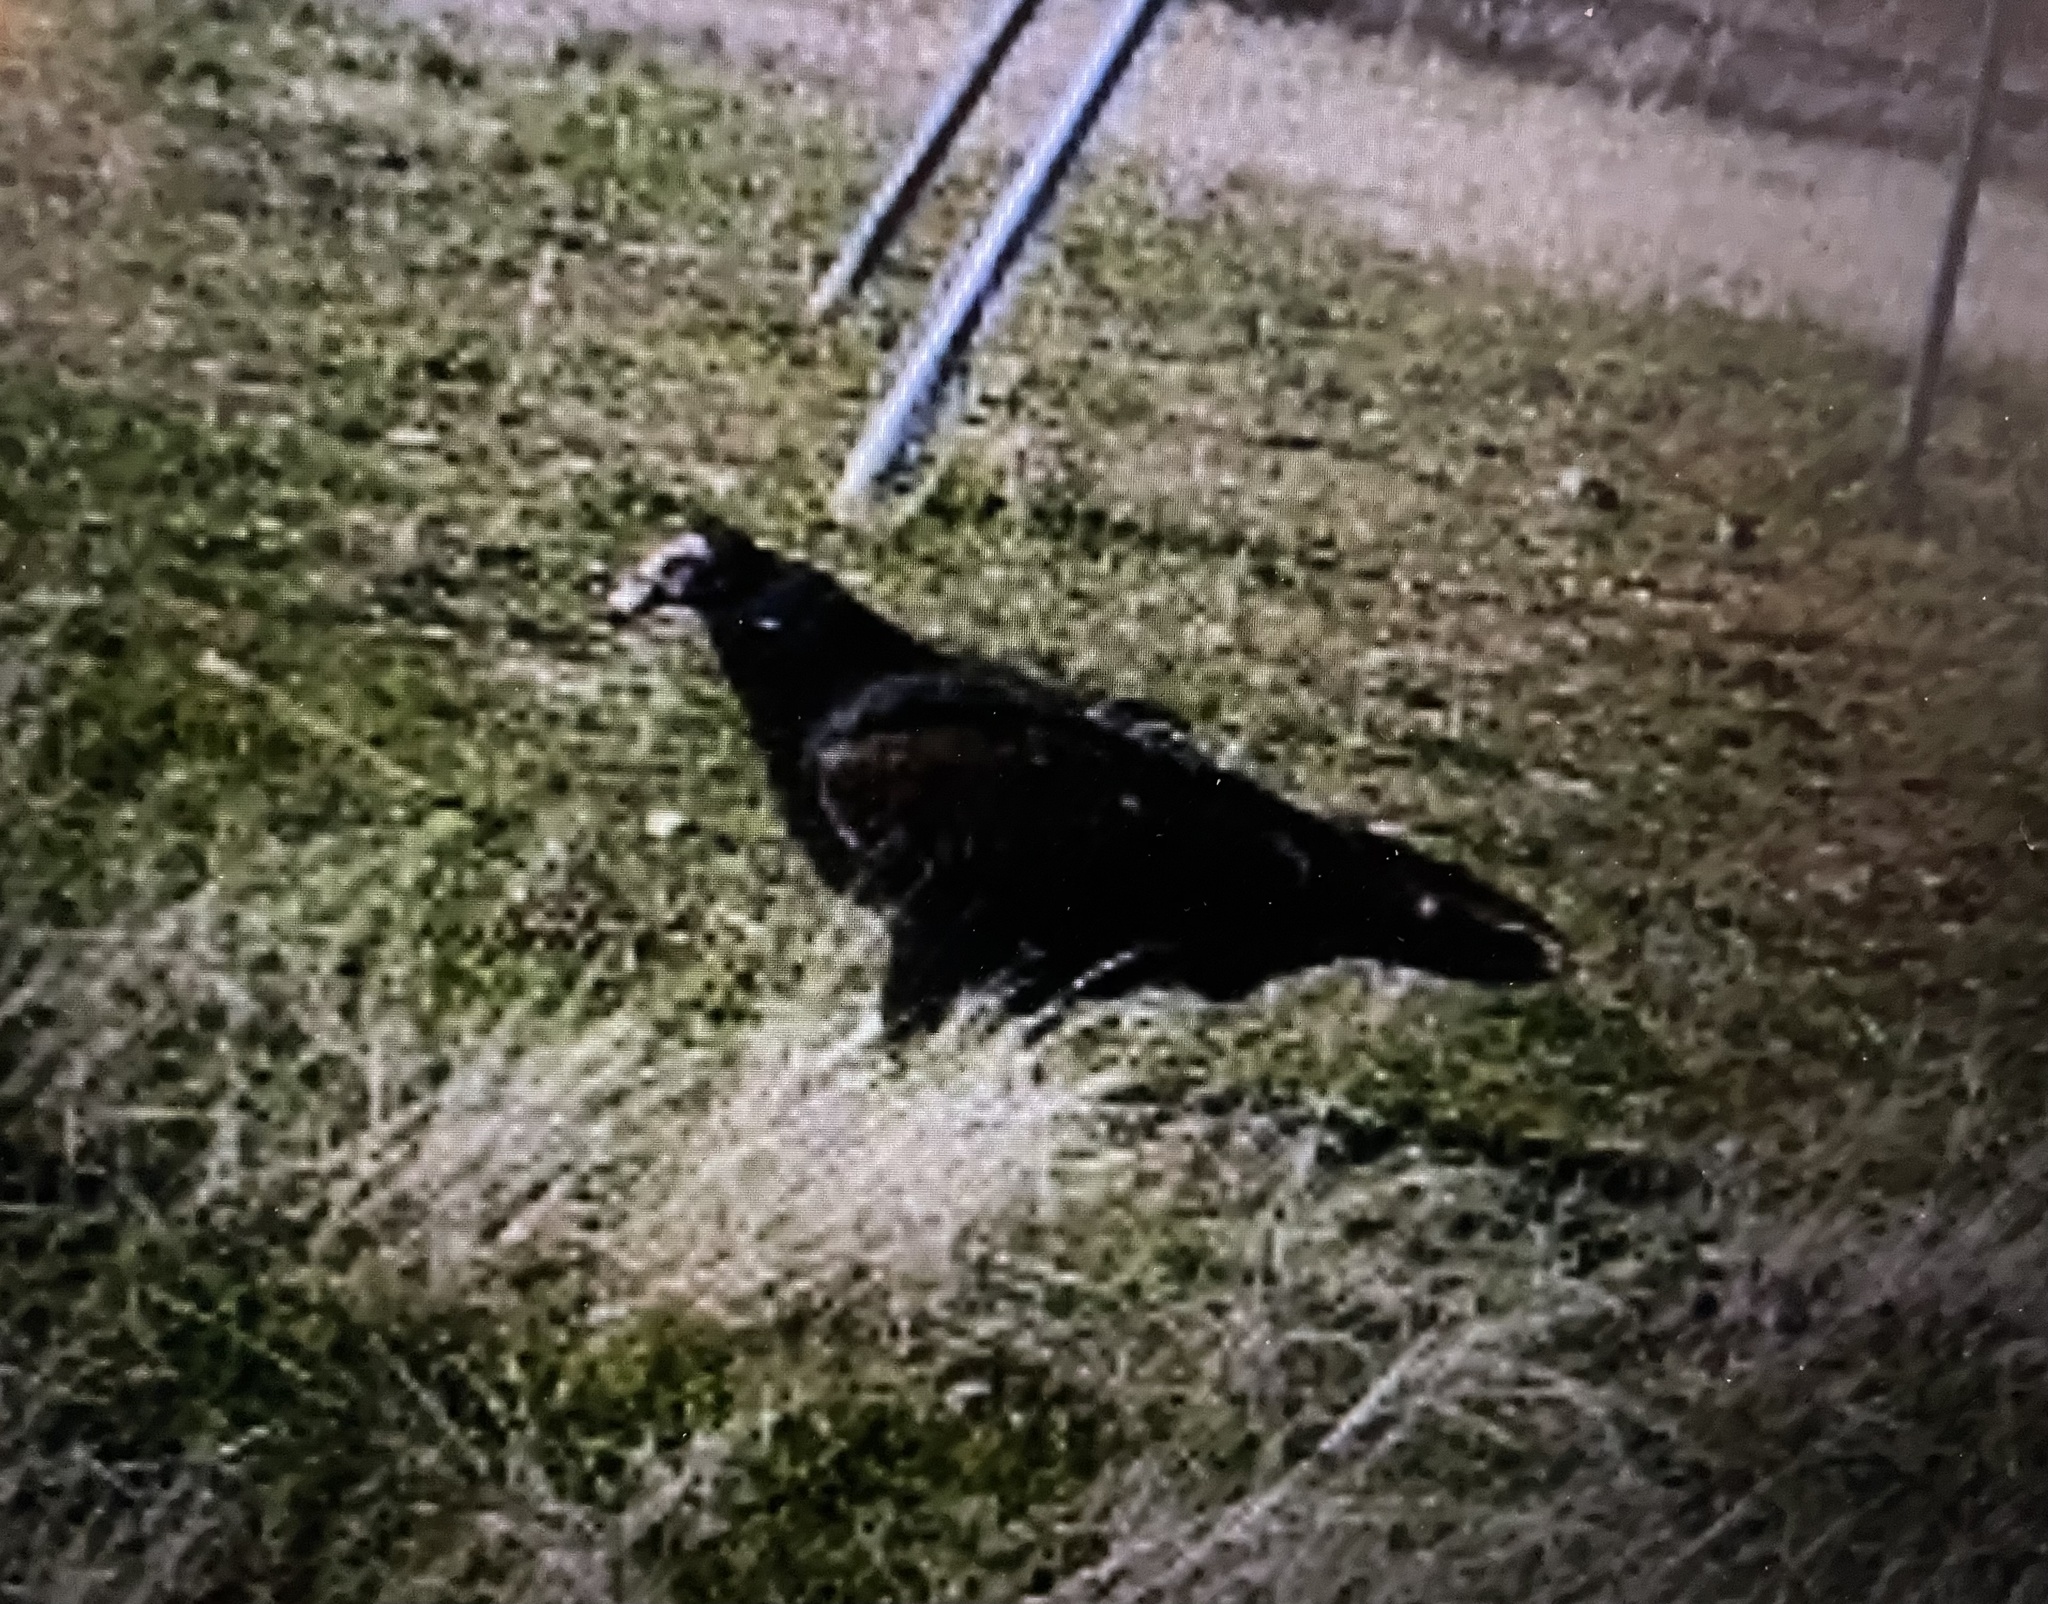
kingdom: Animalia
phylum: Chordata
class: Aves
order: Accipitriformes
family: Cathartidae
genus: Coragyps
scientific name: Coragyps atratus
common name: Black vulture
